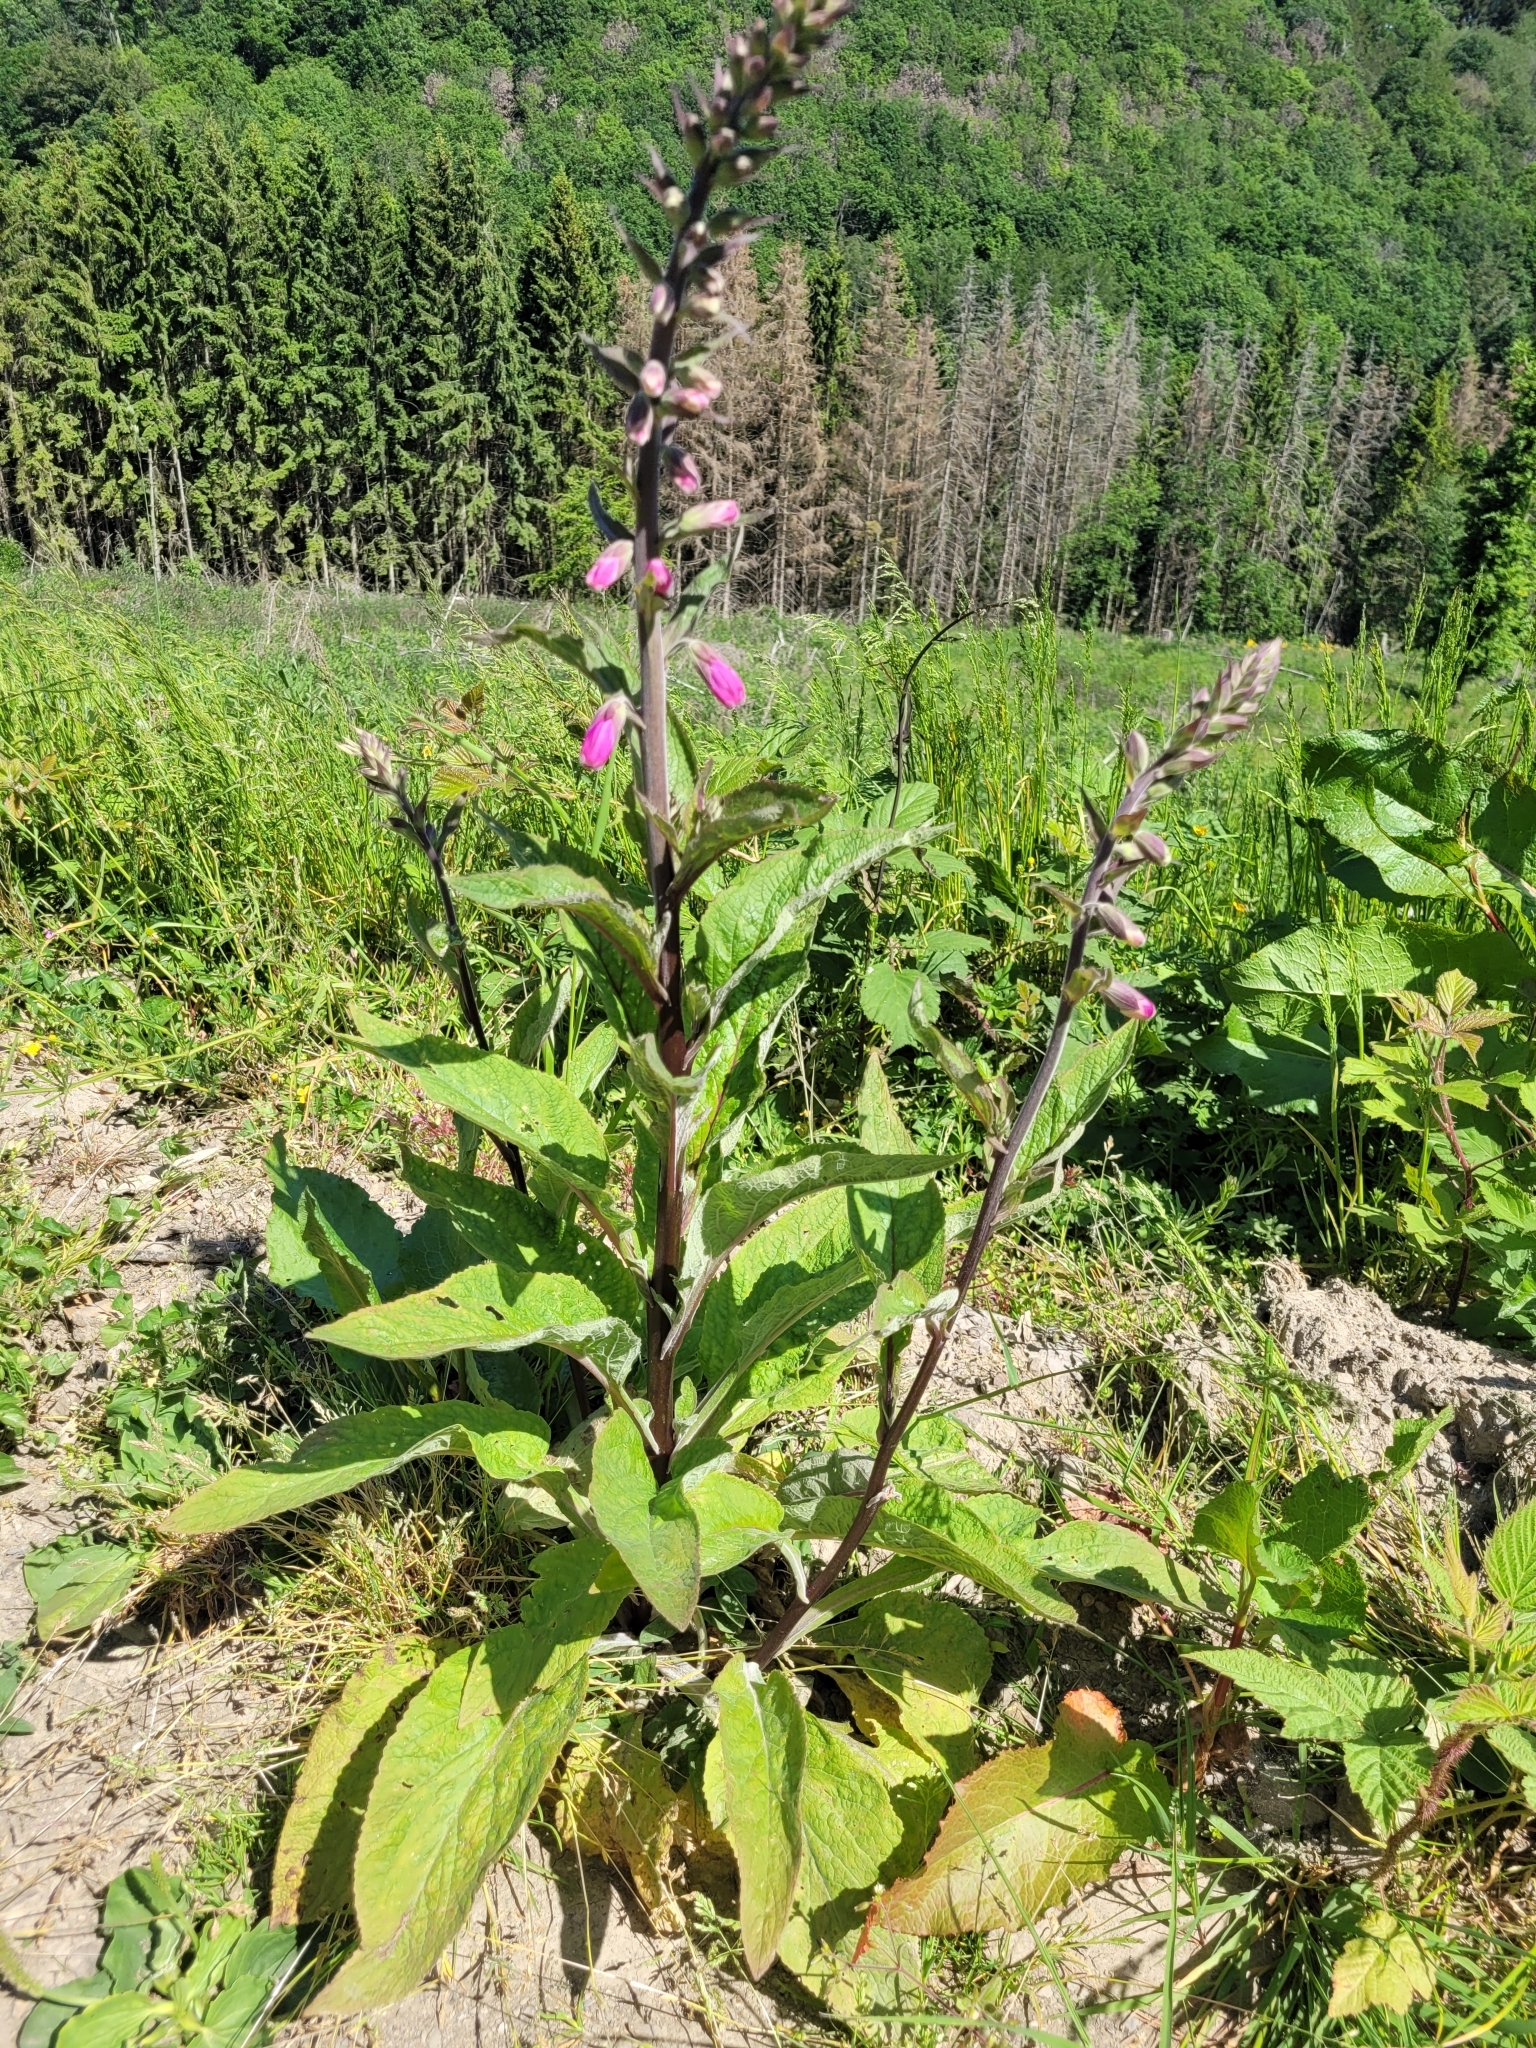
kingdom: Plantae
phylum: Tracheophyta
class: Magnoliopsida
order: Lamiales
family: Plantaginaceae
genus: Digitalis
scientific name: Digitalis purpurea
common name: Foxglove
